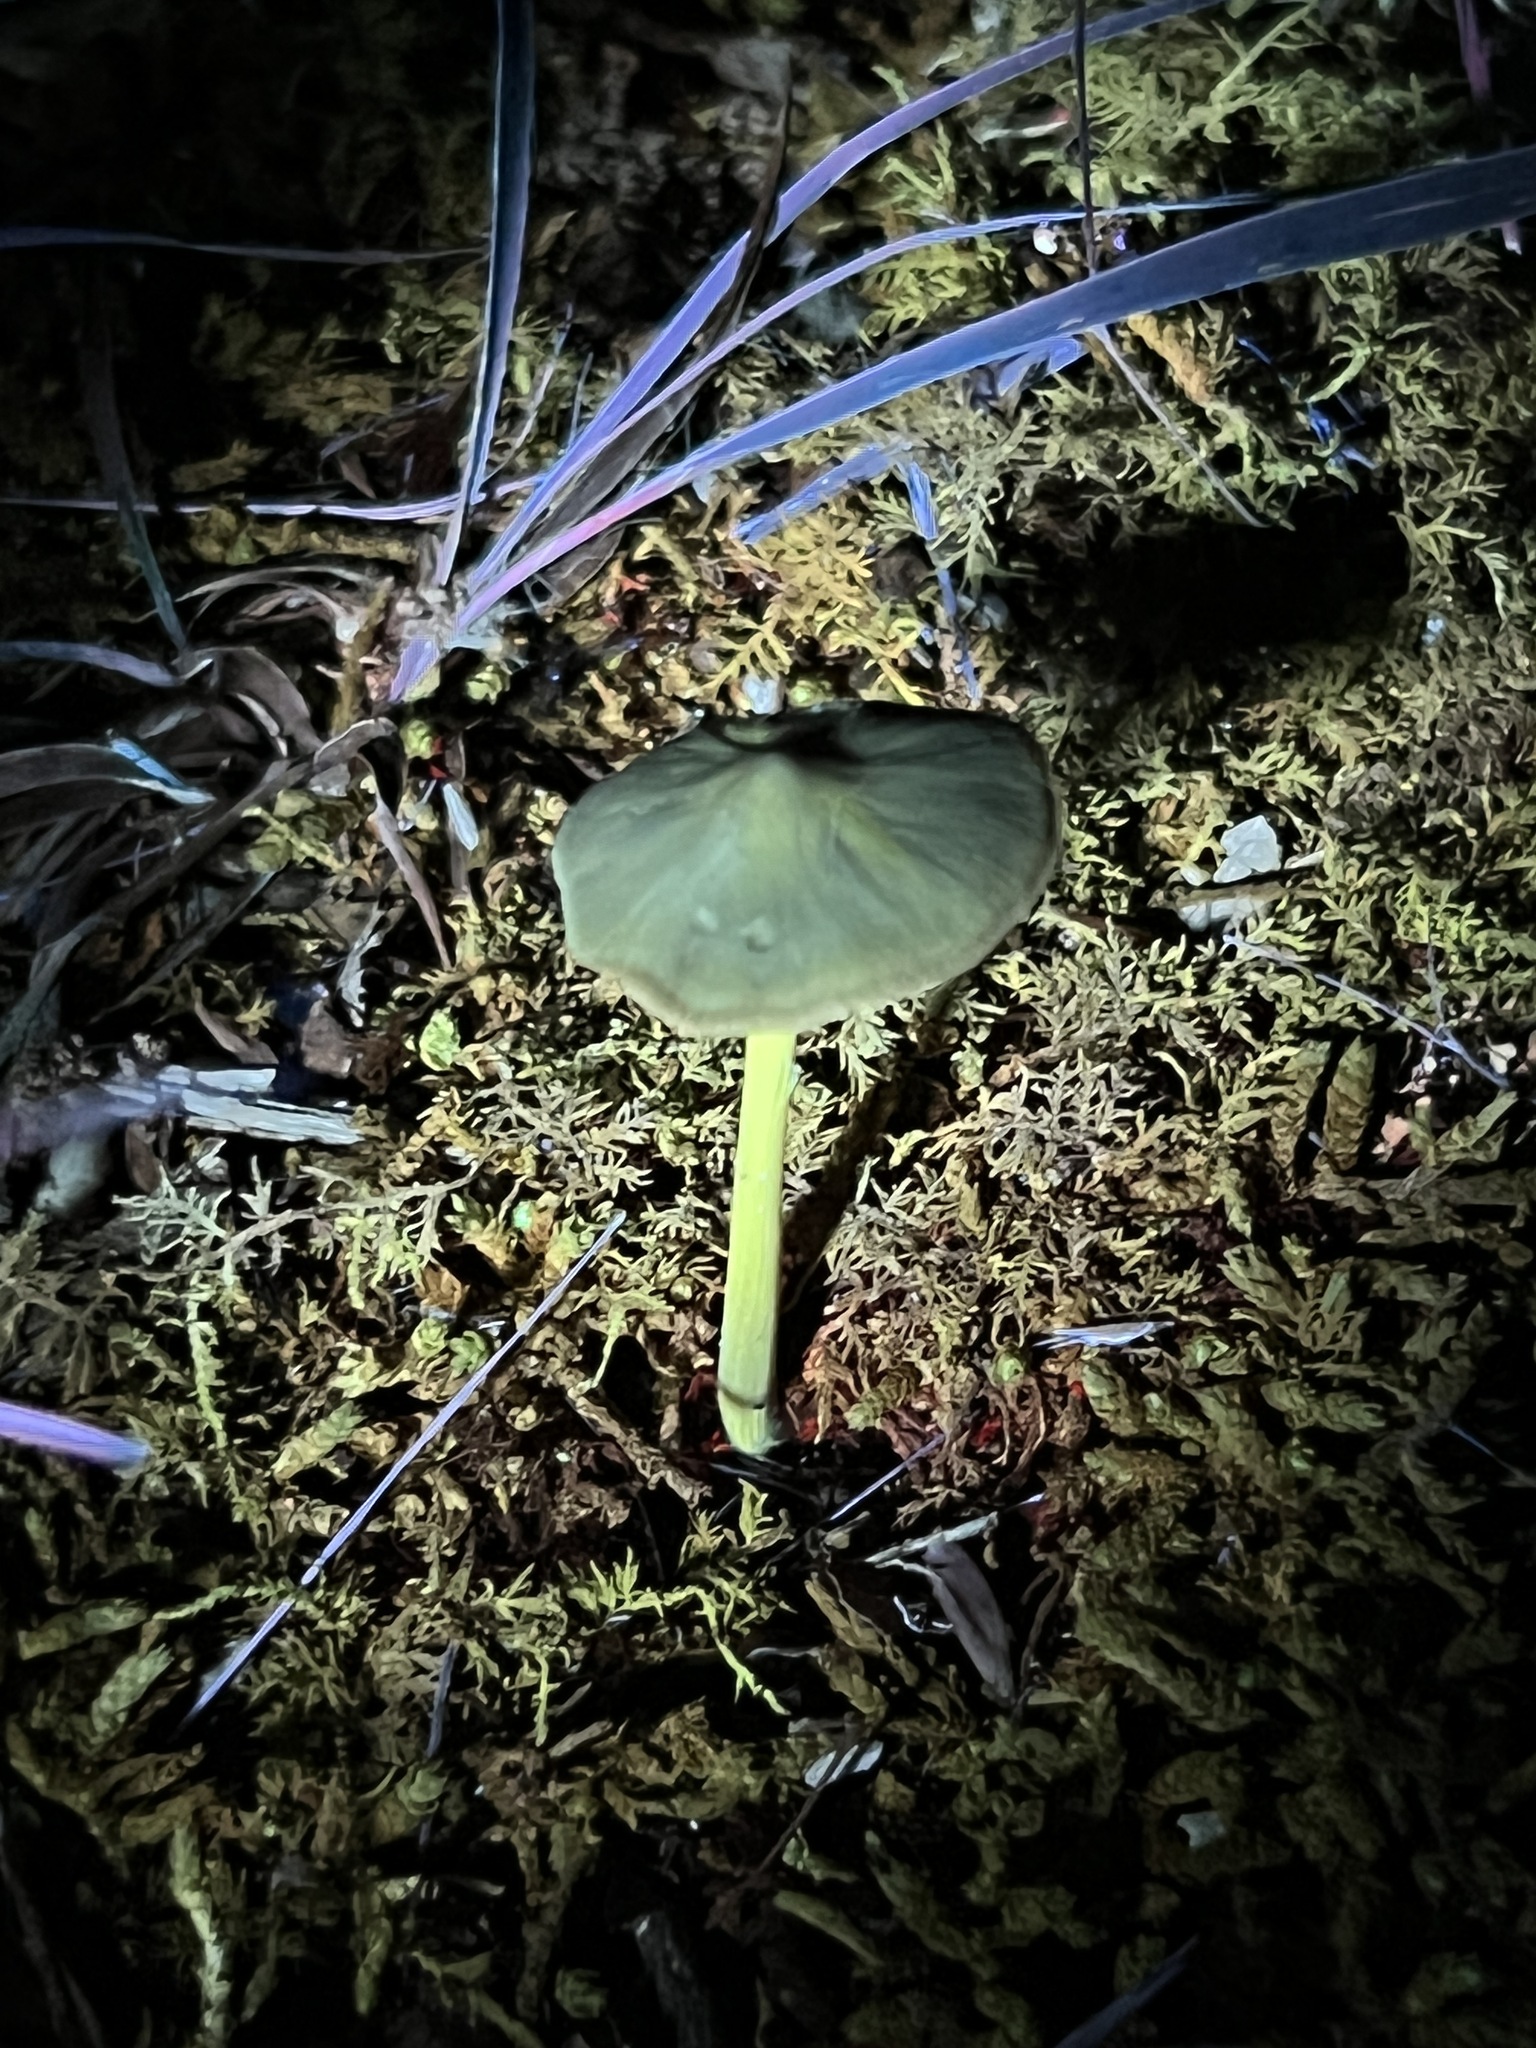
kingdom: Fungi
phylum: Basidiomycota
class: Agaricomycetes
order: Agaricales
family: Entolomataceae
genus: Entoloma
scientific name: Entoloma vernum
